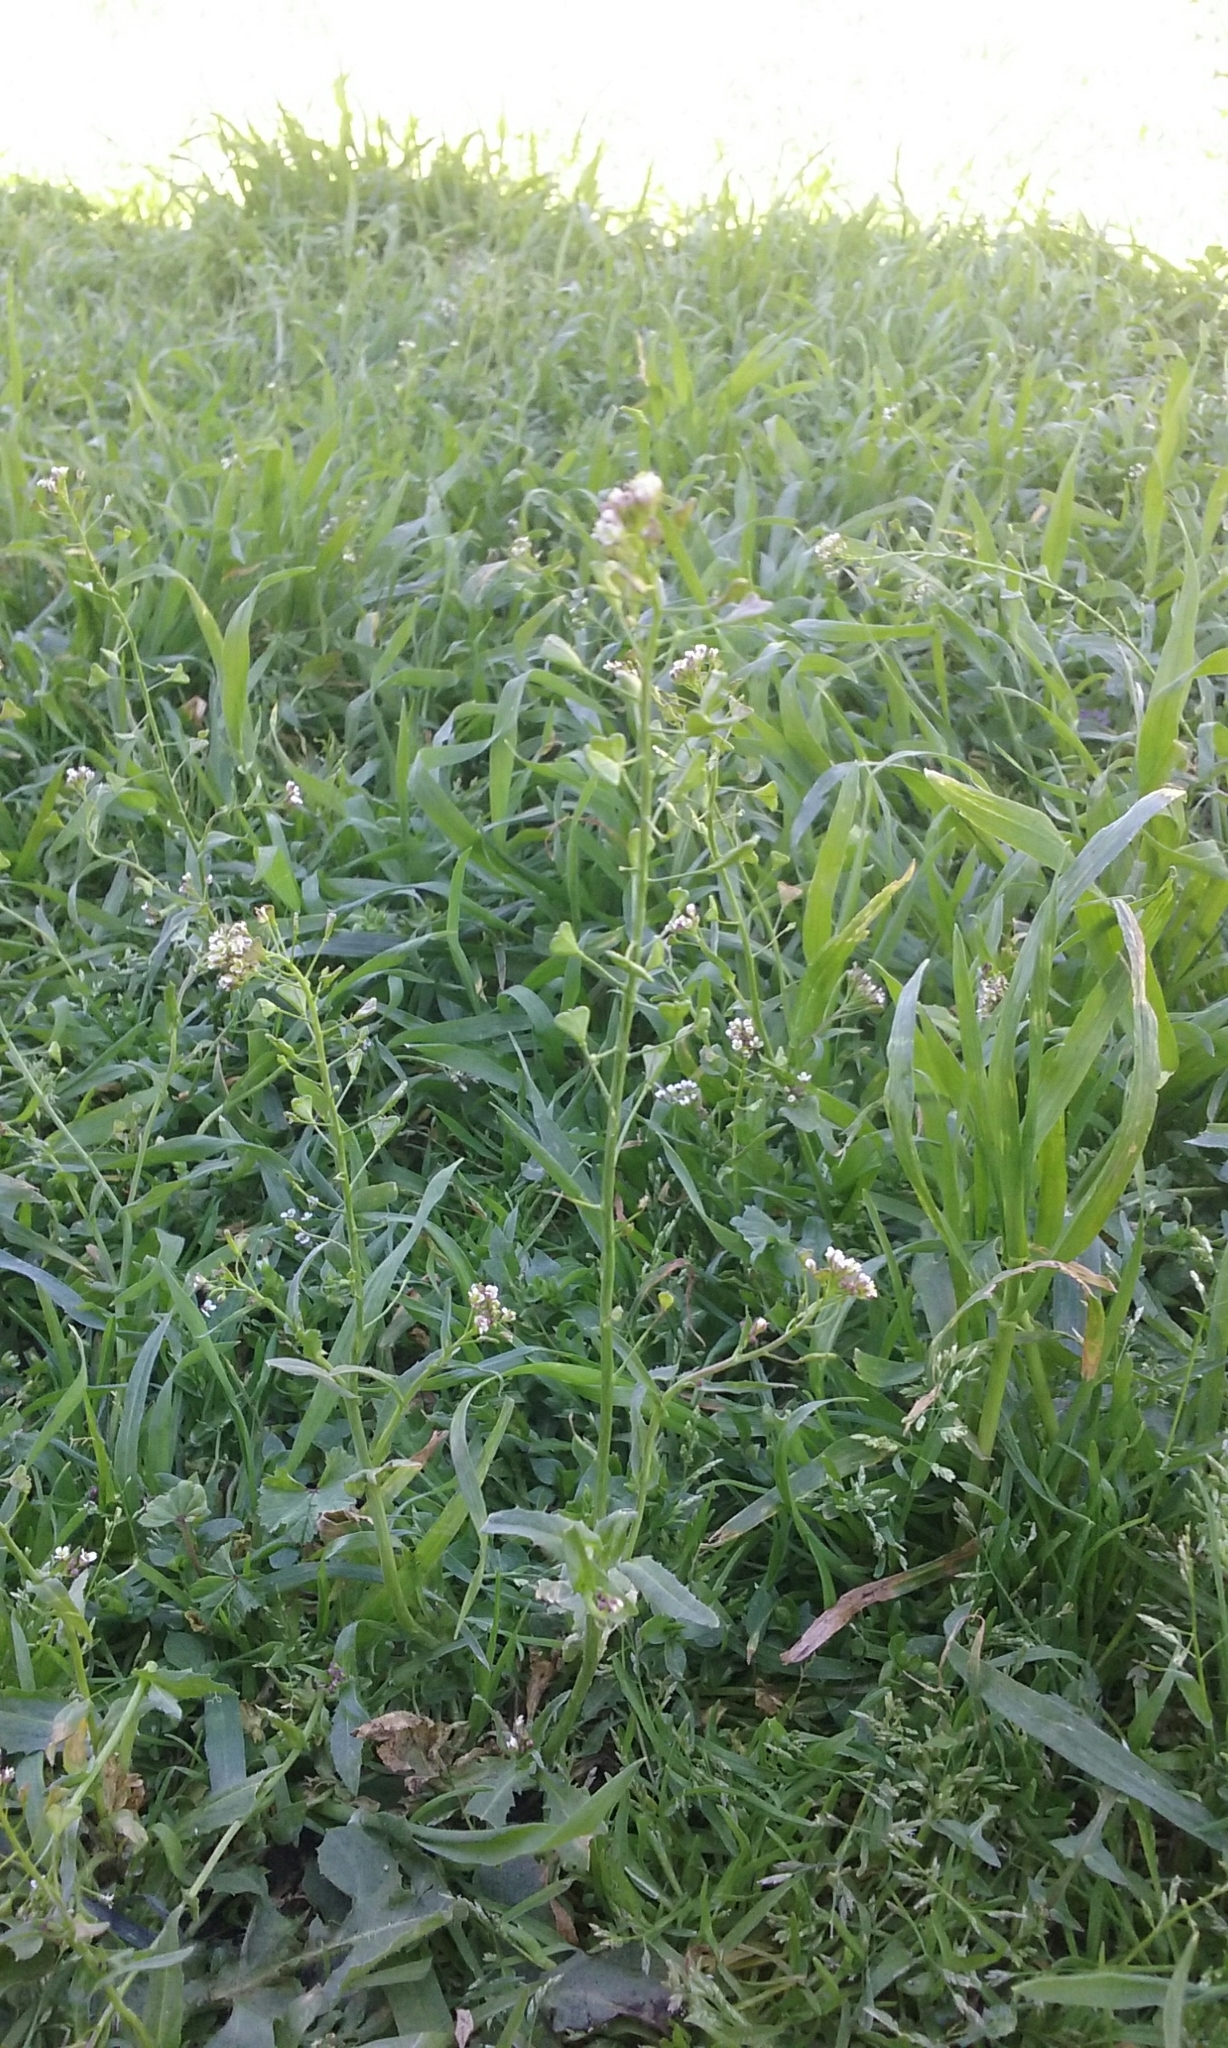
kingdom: Plantae
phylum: Tracheophyta
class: Magnoliopsida
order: Brassicales
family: Brassicaceae
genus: Capsella
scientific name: Capsella bursa-pastoris
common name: Shepherd's purse
